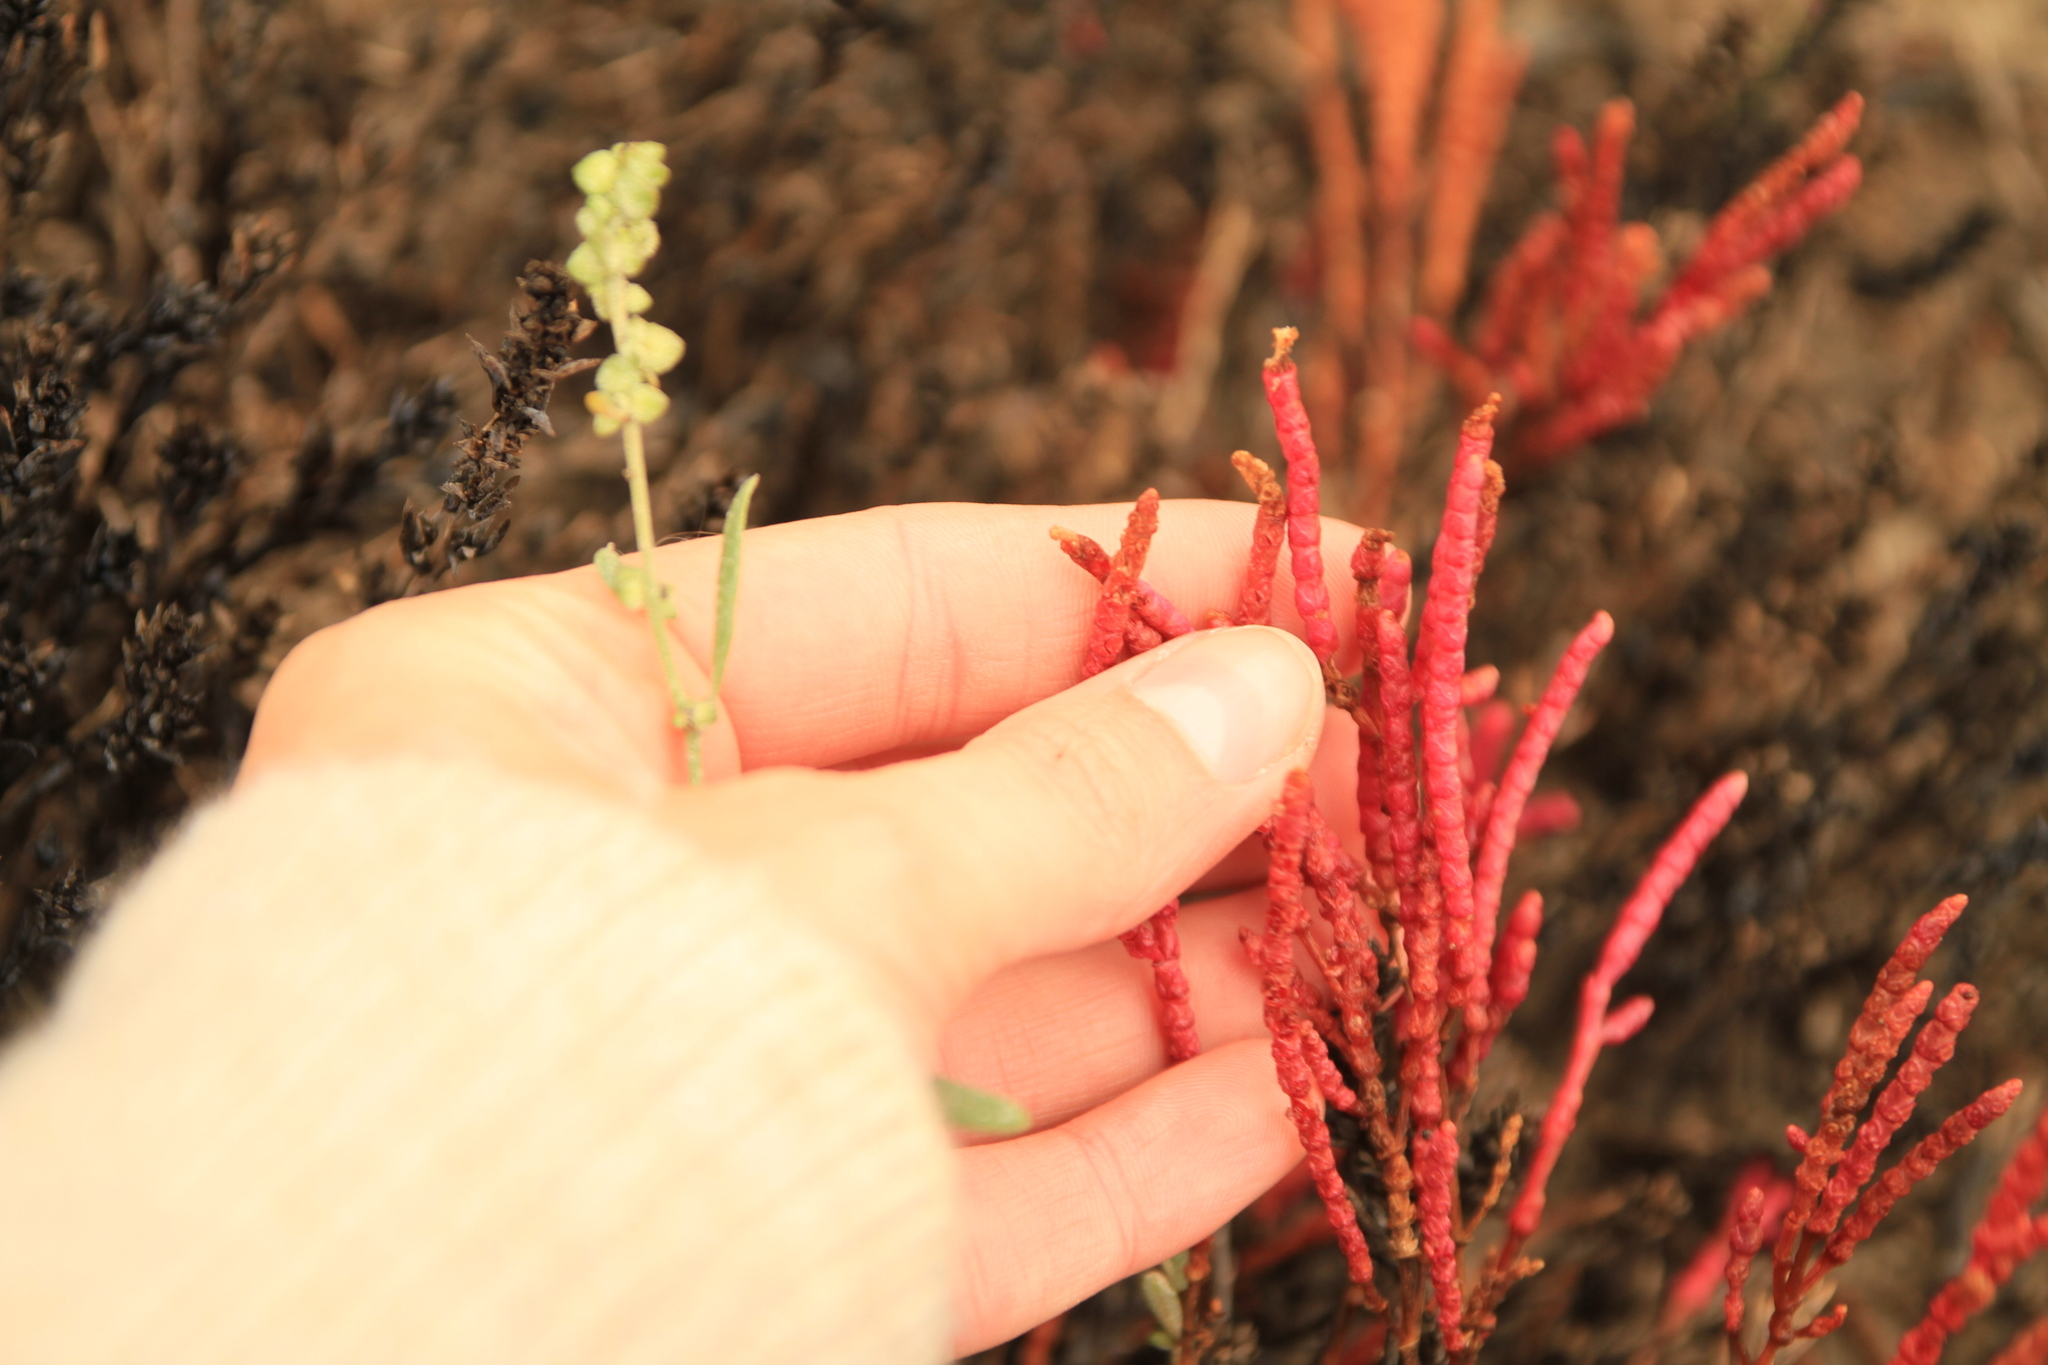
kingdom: Plantae
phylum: Tracheophyta
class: Magnoliopsida
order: Caryophyllales
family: Amaranthaceae
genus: Salicornia
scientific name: Salicornia rubra
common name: Red glasswort
